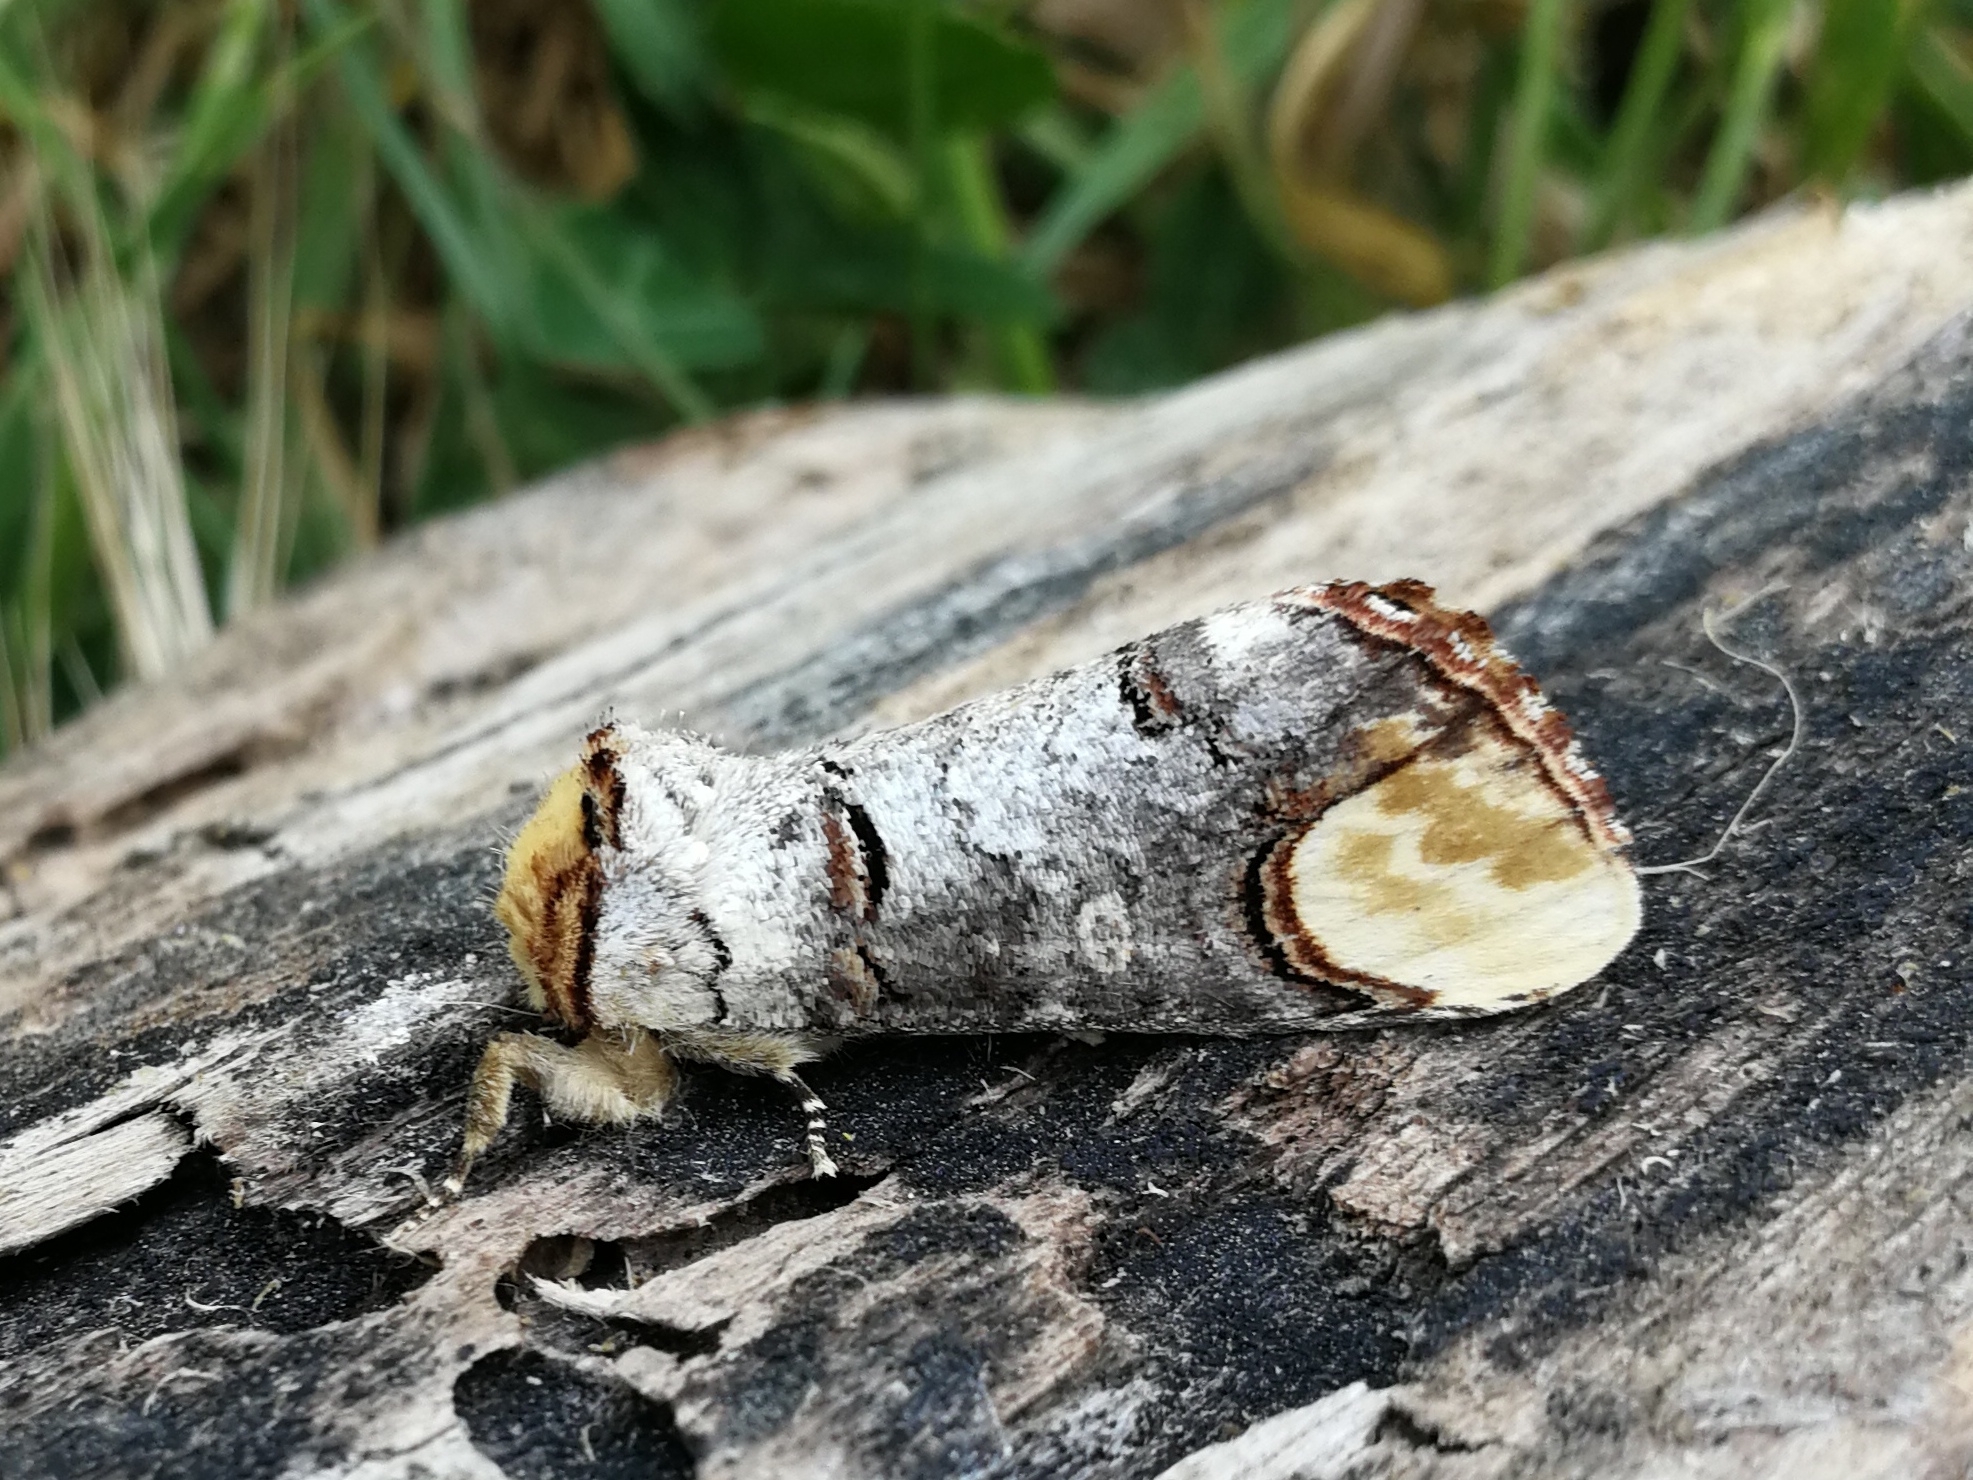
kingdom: Animalia
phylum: Arthropoda
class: Insecta
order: Lepidoptera
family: Notodontidae
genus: Phalera
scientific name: Phalera bucephala
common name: Buff-tip
